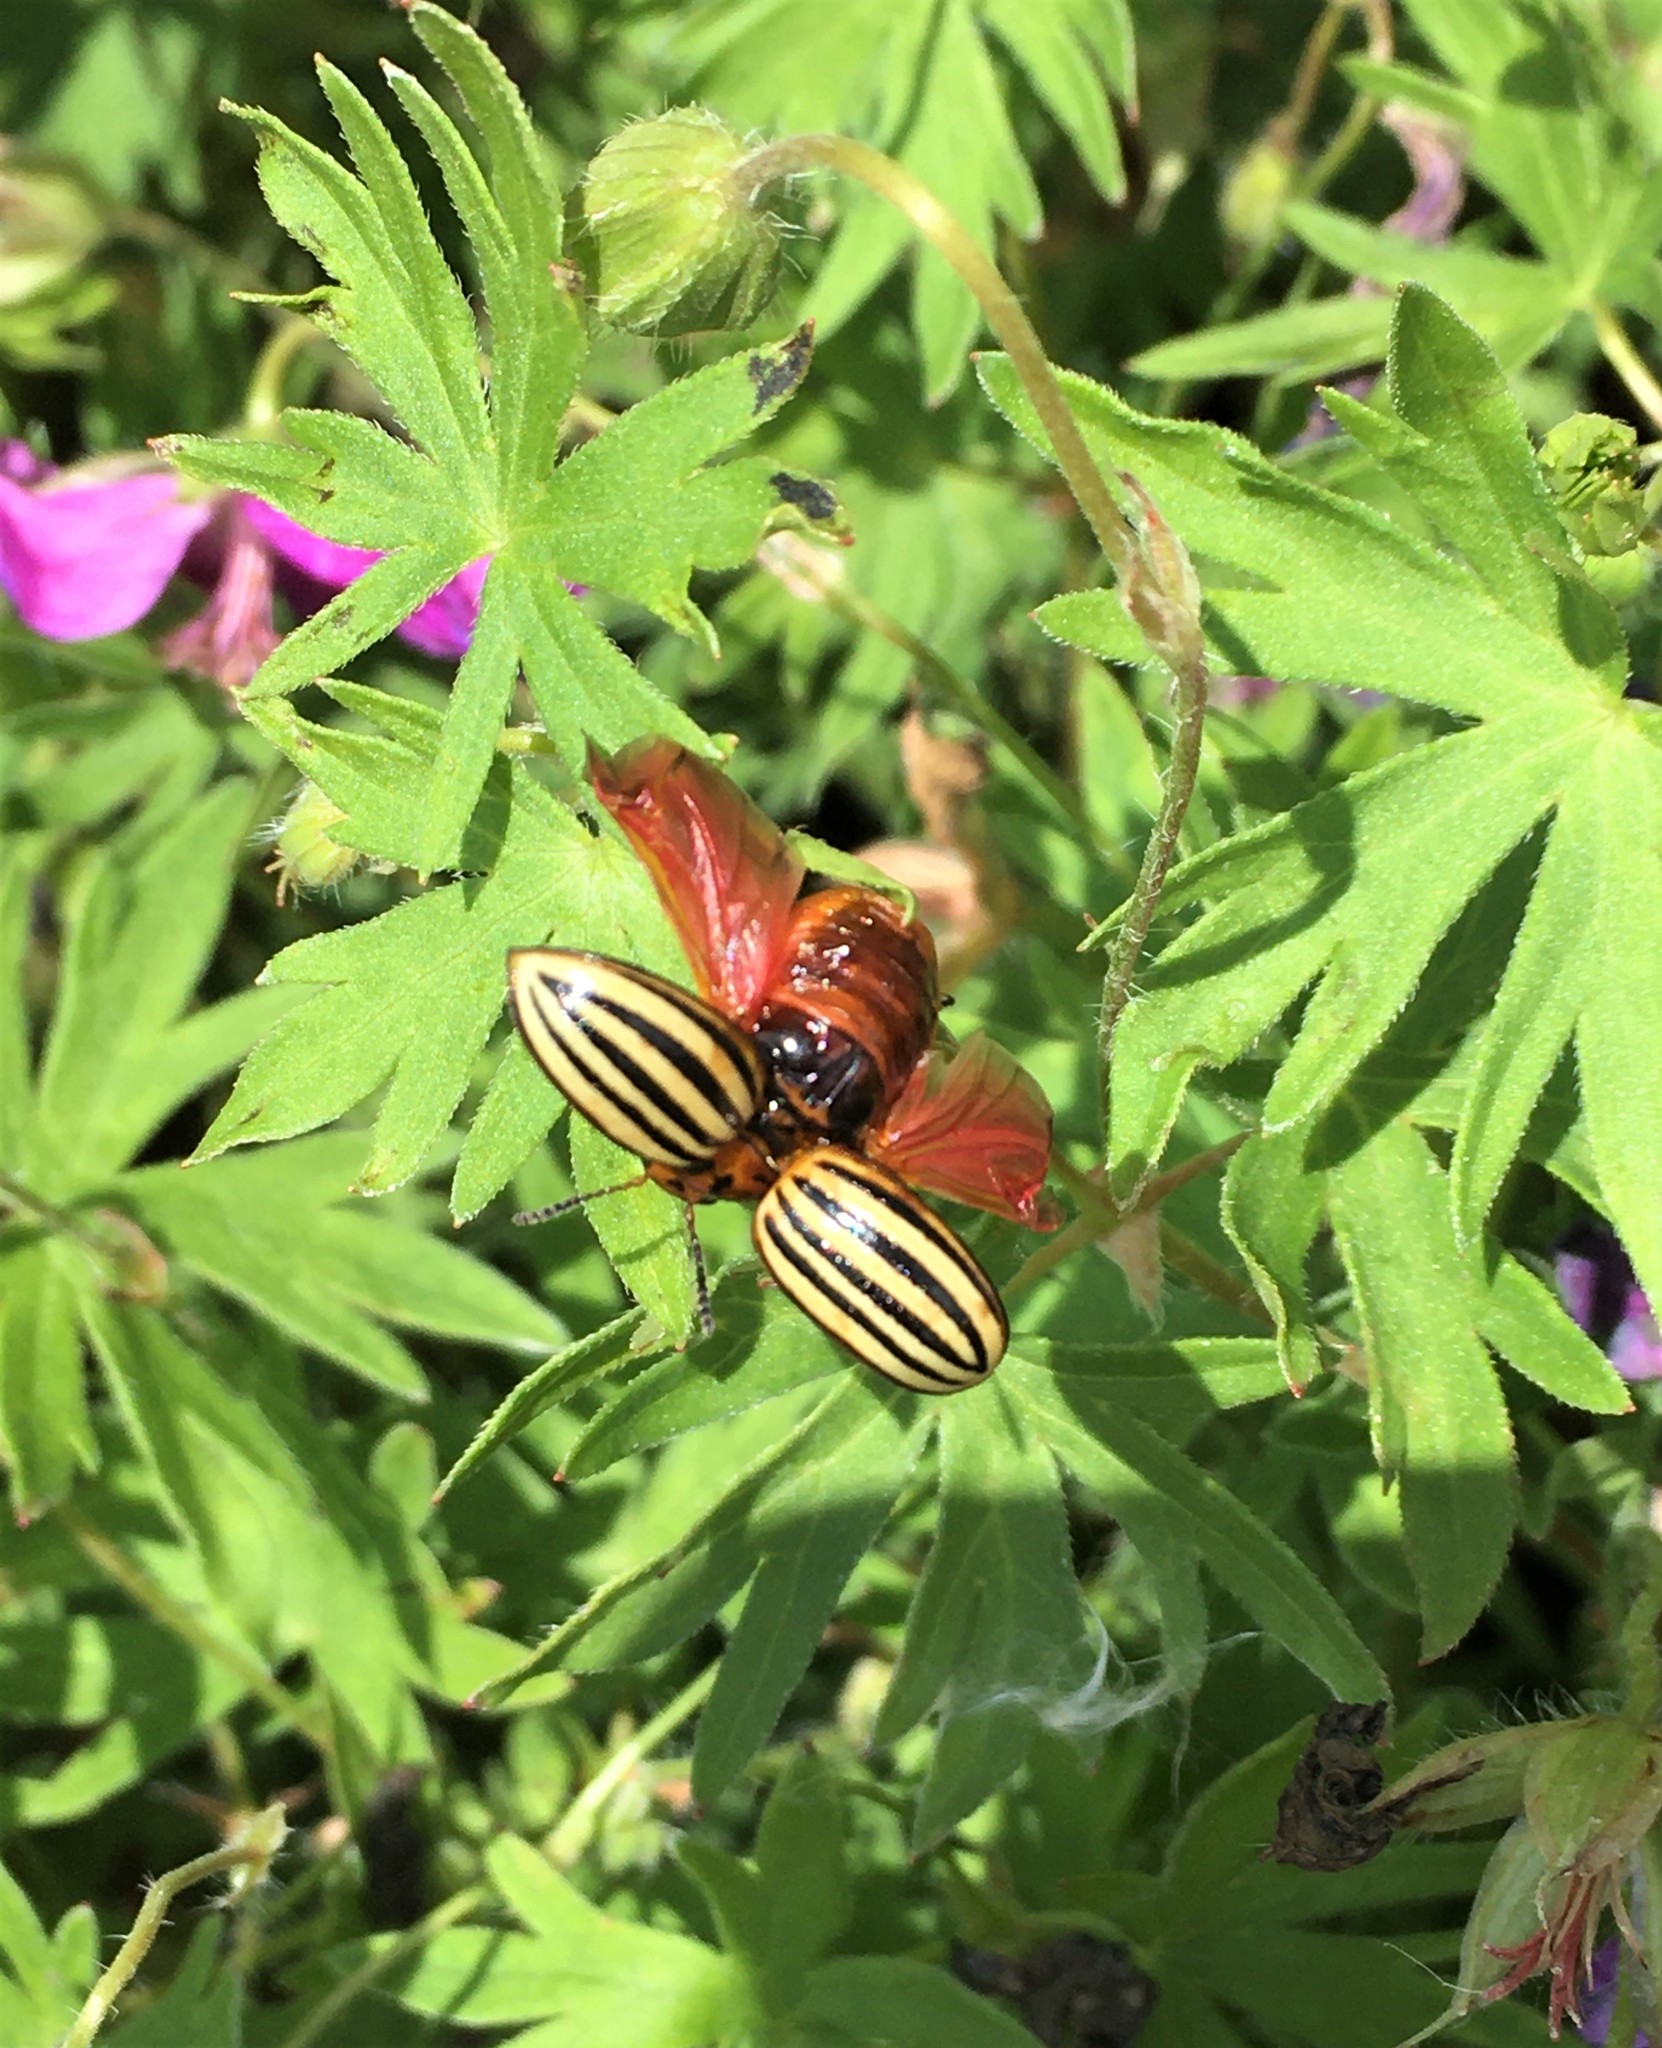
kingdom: Animalia
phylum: Arthropoda
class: Insecta
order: Coleoptera
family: Chrysomelidae
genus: Leptinotarsa
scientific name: Leptinotarsa decemlineata
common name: Colorado potato beetle
